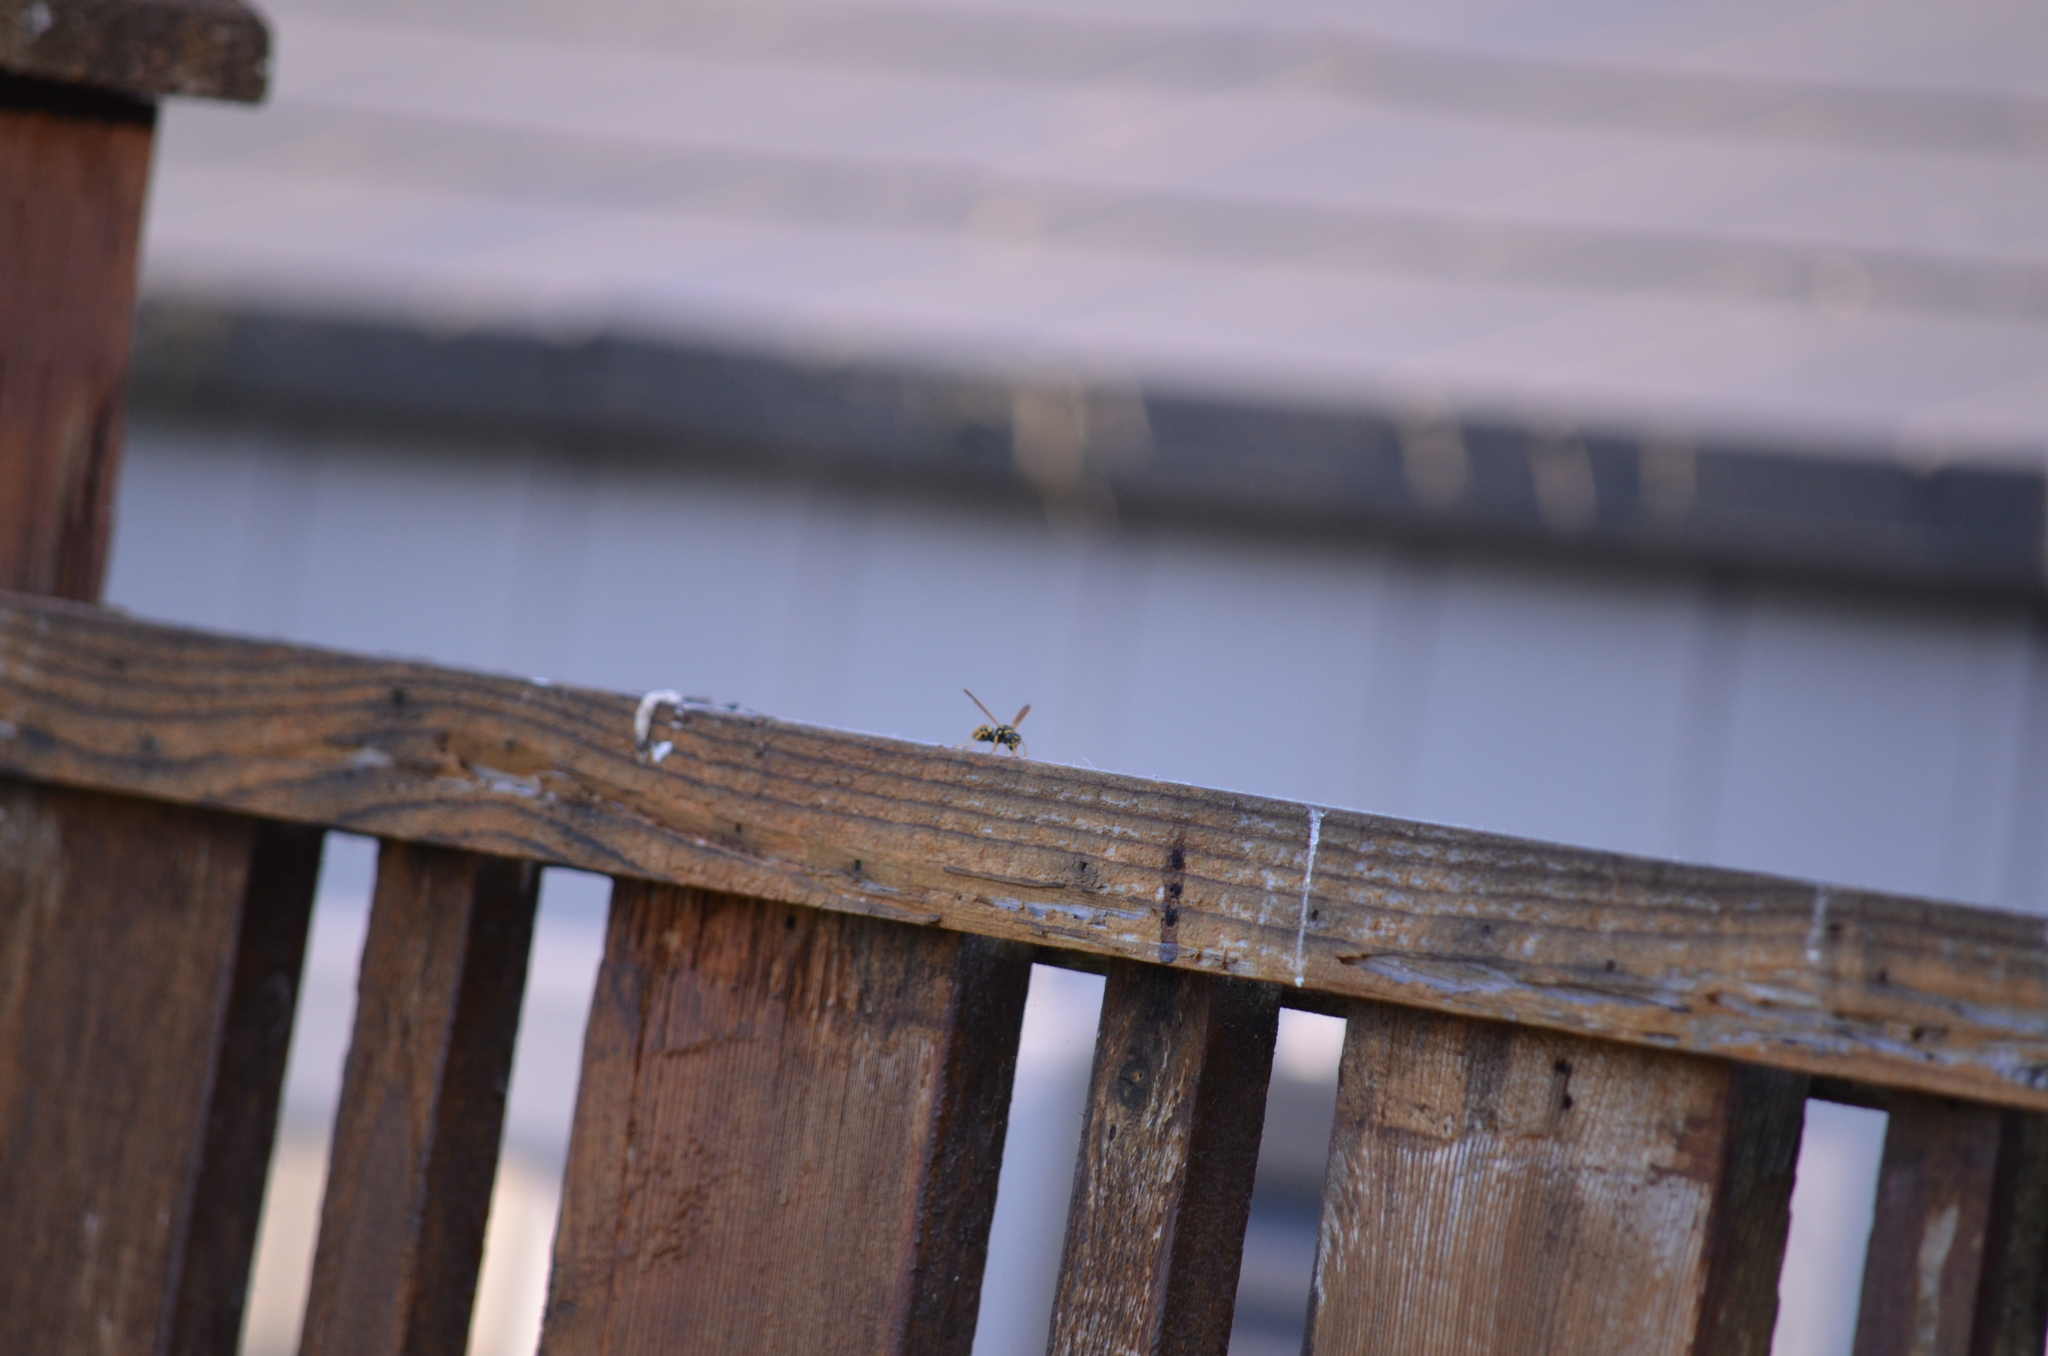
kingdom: Animalia
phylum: Arthropoda
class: Insecta
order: Hymenoptera
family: Eumenidae
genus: Polistes
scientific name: Polistes dominula
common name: Paper wasp
